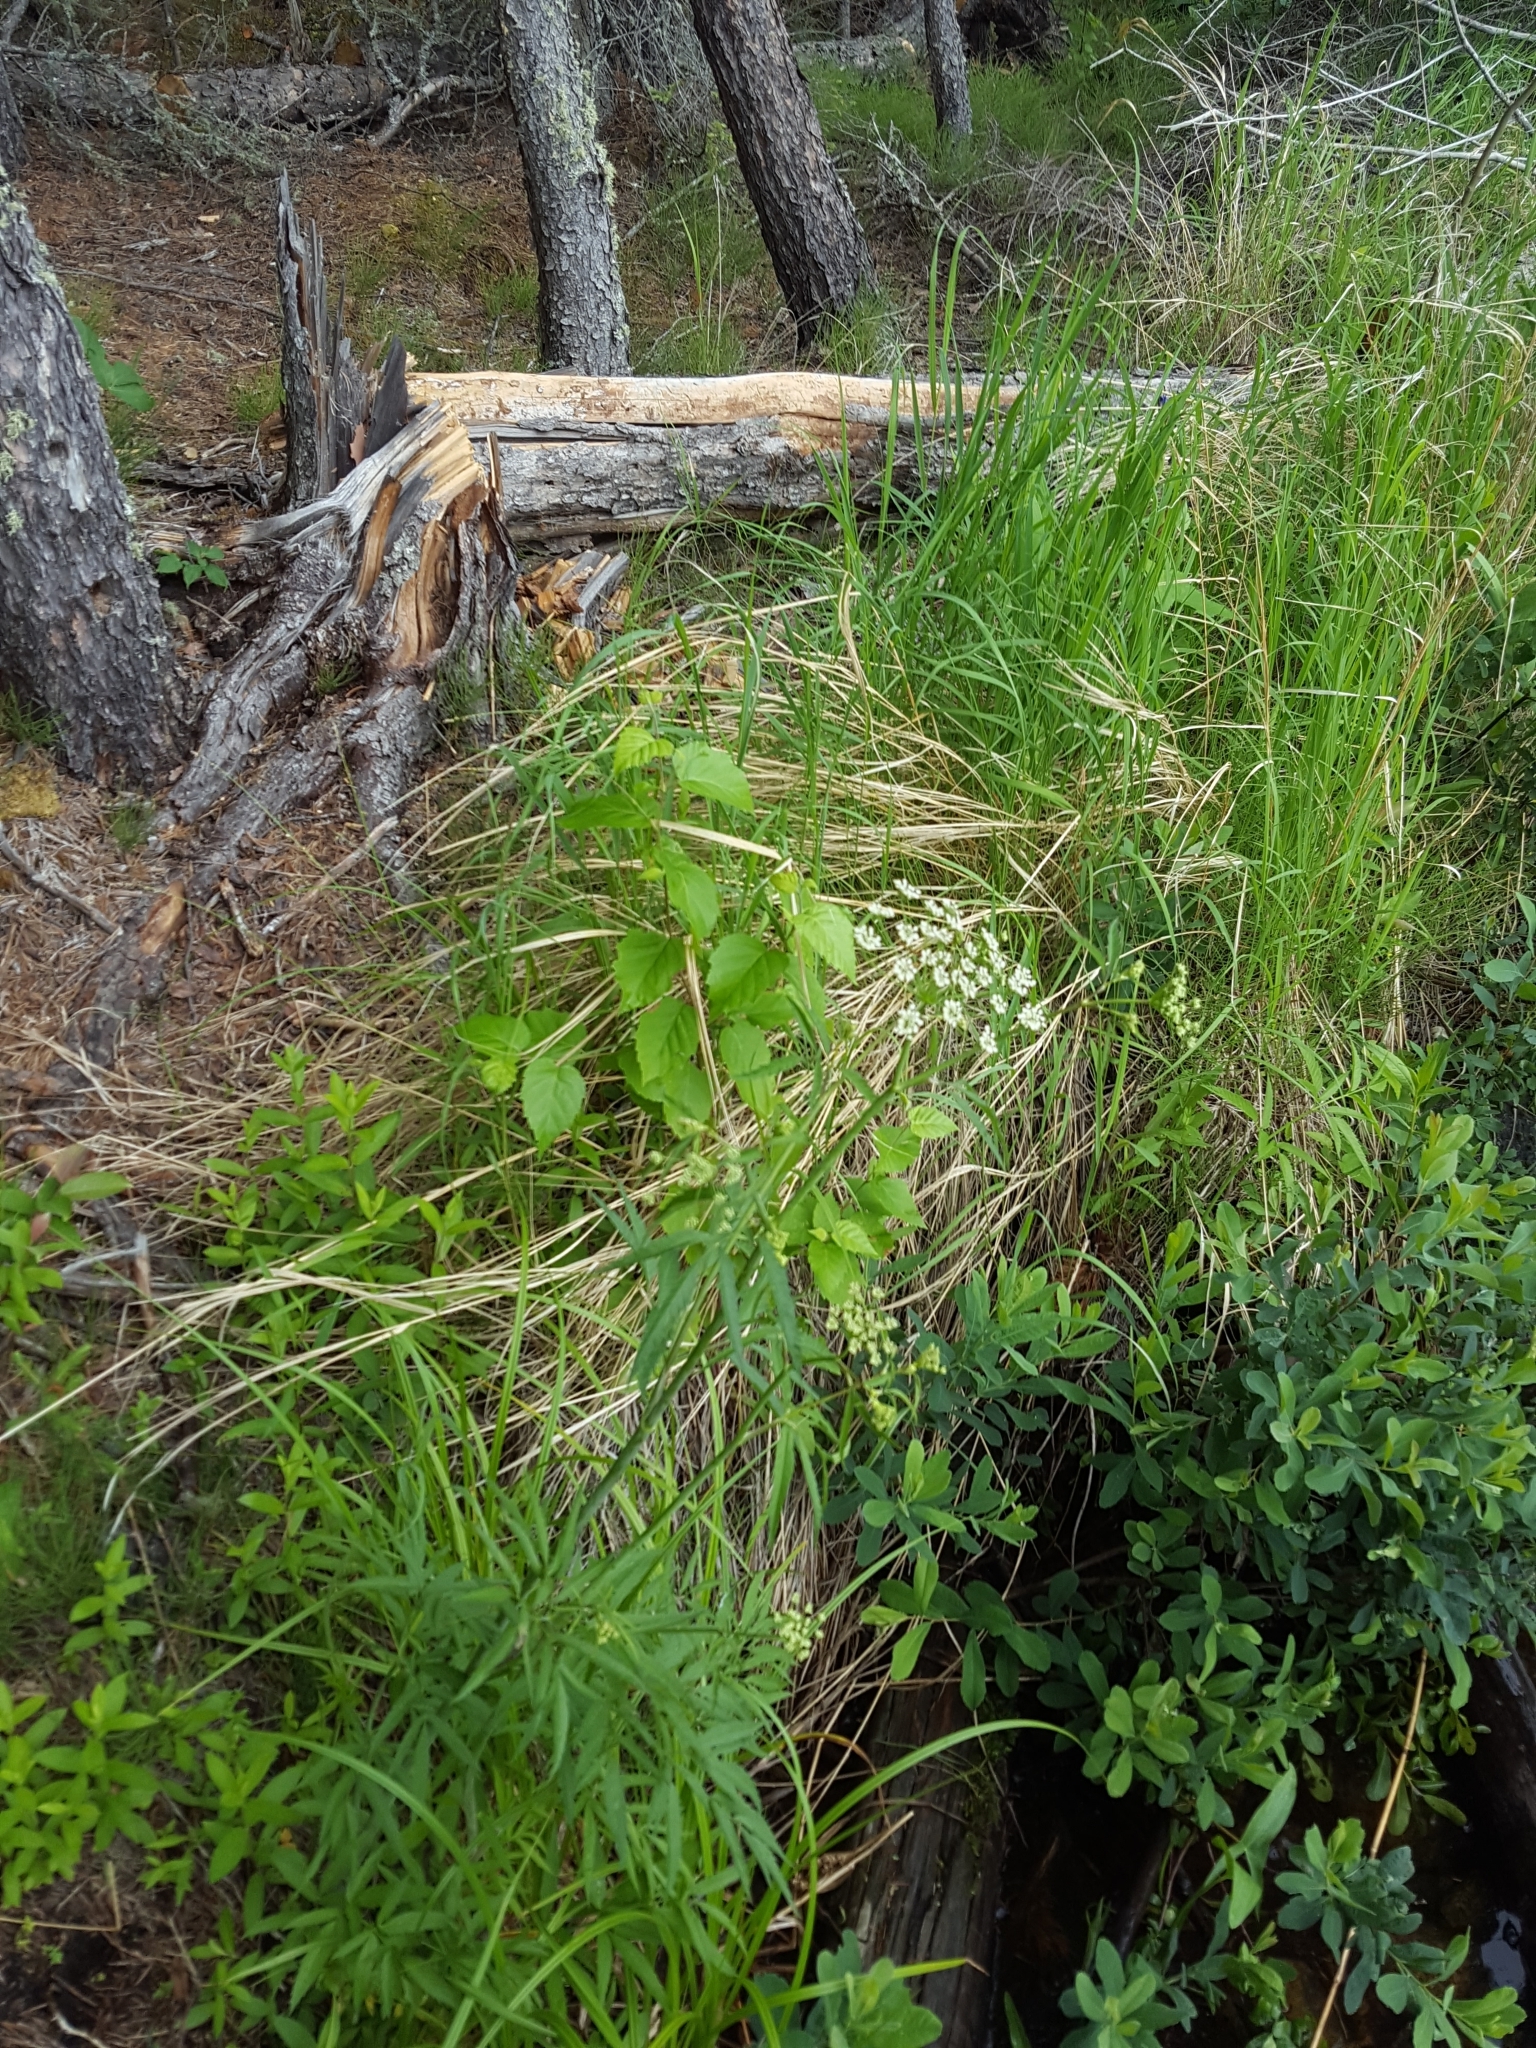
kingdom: Plantae
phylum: Tracheophyta
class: Magnoliopsida
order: Apiales
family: Apiaceae
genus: Cicuta
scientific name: Cicuta maculata
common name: Spotted cowbane
